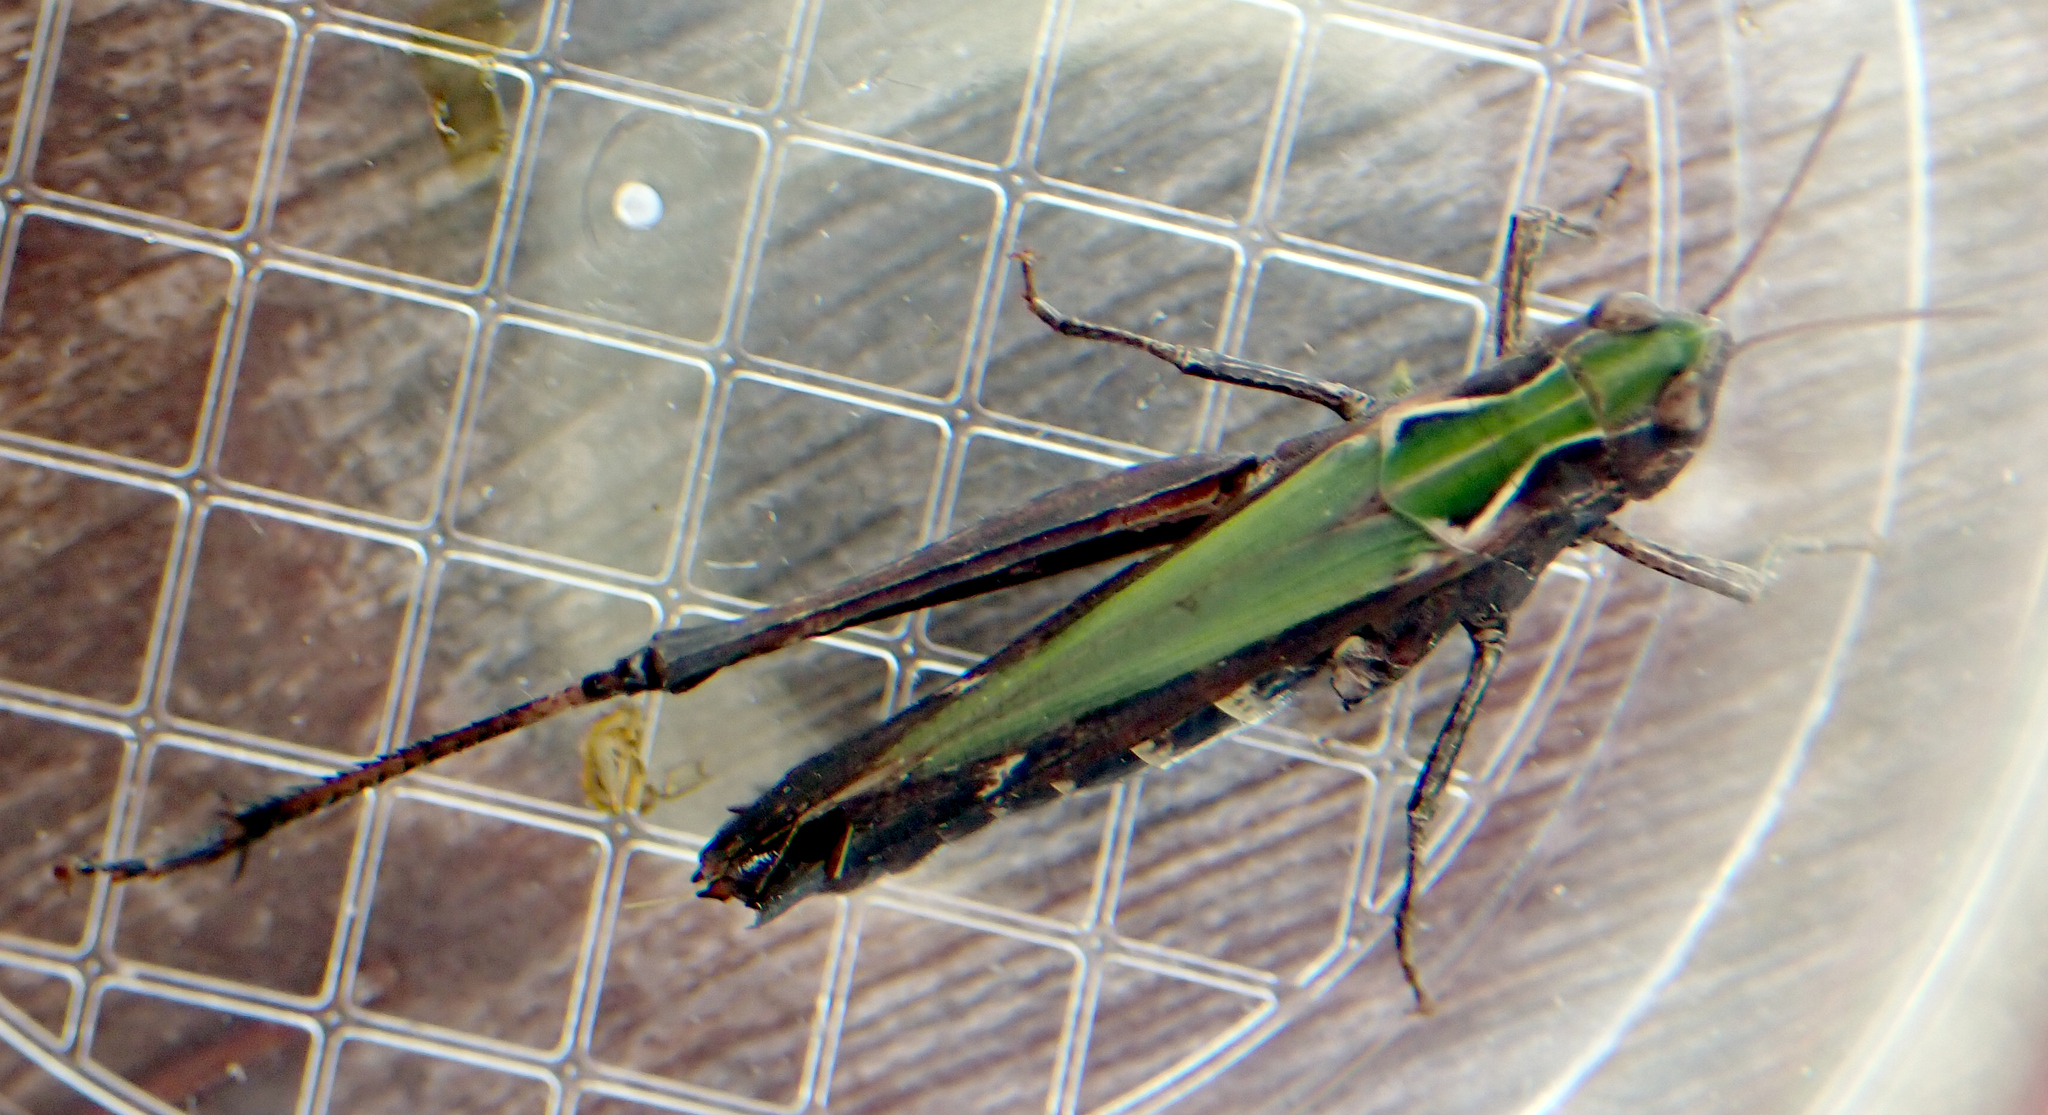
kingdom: Animalia
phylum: Arthropoda
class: Insecta
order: Orthoptera
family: Acrididae
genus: Omocestus
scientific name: Omocestus rufipes
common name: Woodland grasshopper
